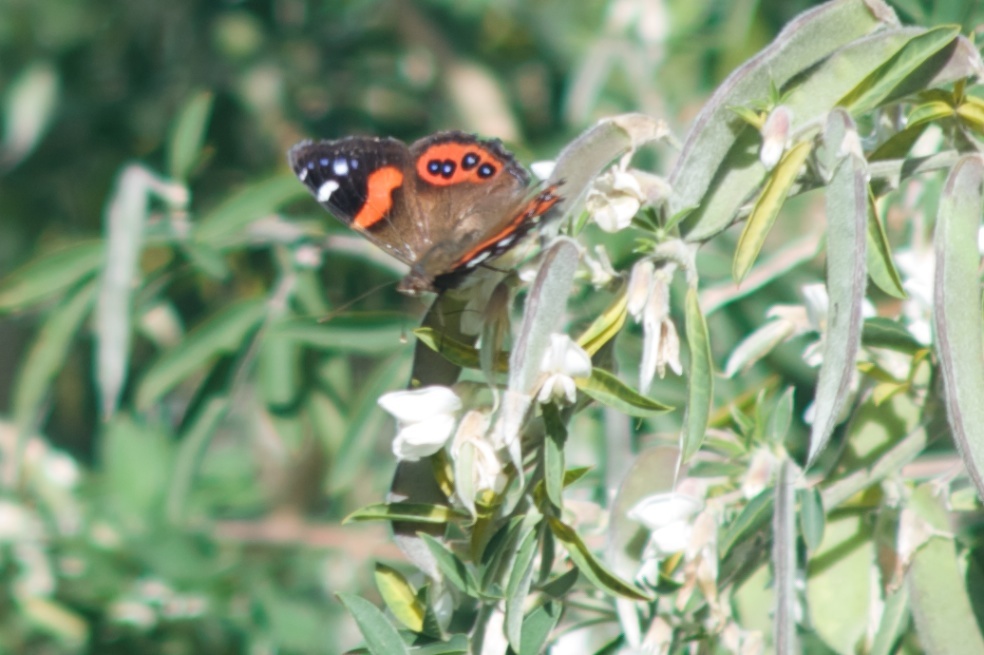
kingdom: Animalia
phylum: Arthropoda
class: Insecta
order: Lepidoptera
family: Nymphalidae
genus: Vanessa
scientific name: Vanessa gonerilla
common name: New zealand red admiral
